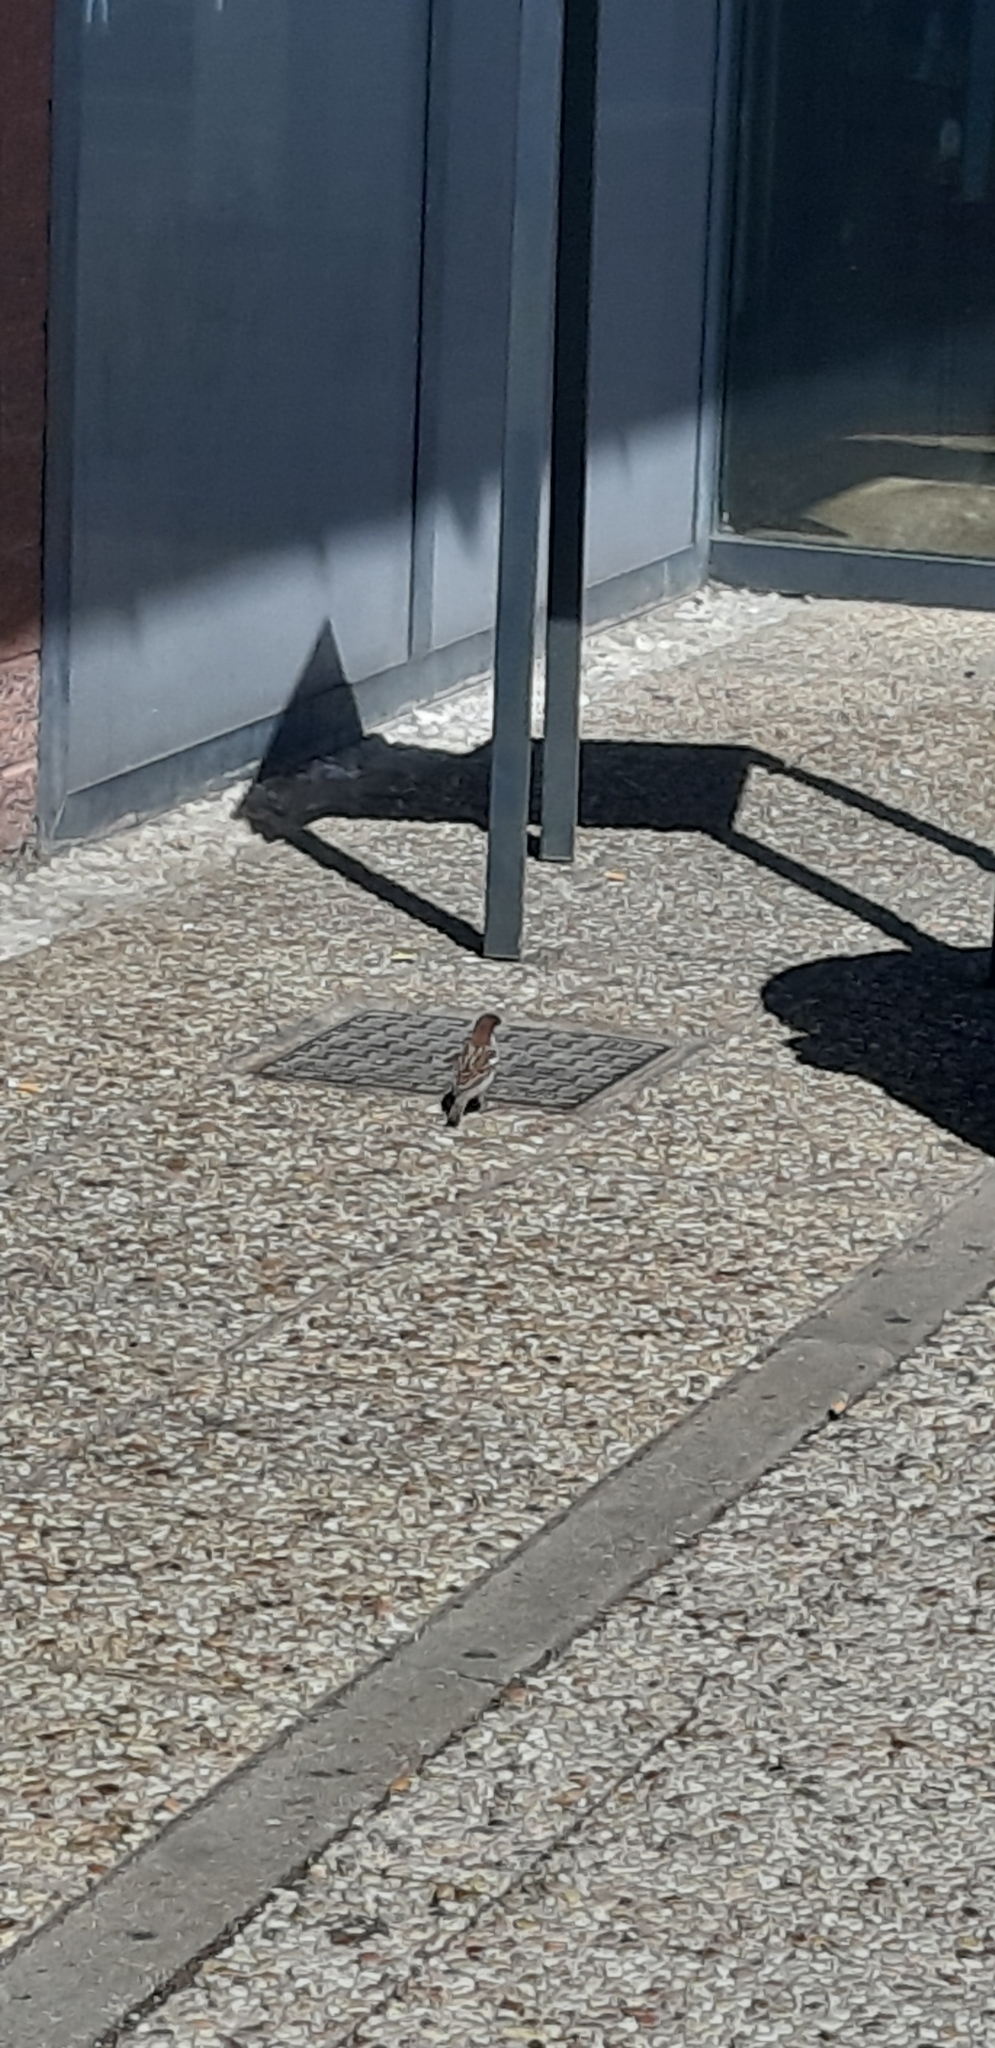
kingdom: Animalia
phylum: Chordata
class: Aves
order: Passeriformes
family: Passeridae
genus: Passer
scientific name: Passer italiae
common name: Italian sparrow
